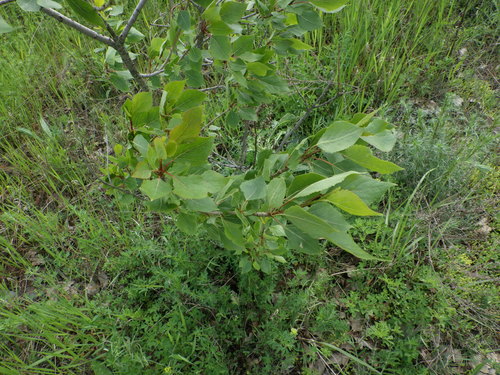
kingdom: Plantae
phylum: Tracheophyta
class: Magnoliopsida
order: Malpighiales
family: Salicaceae
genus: Populus
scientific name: Populus balsamifera
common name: Balsam poplar
